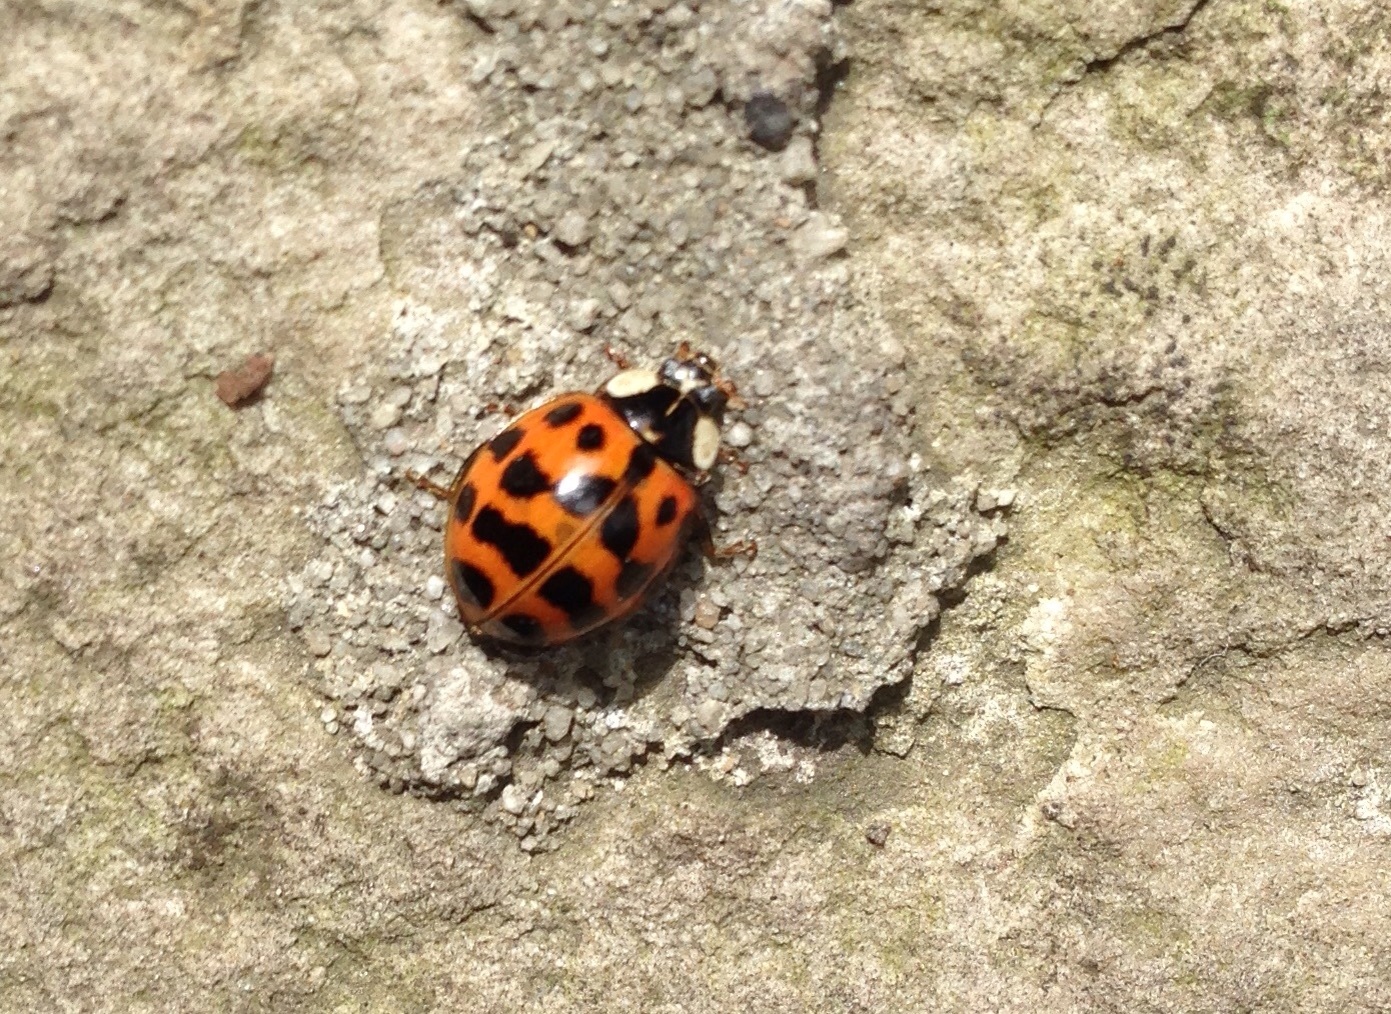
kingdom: Animalia
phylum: Arthropoda
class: Insecta
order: Coleoptera
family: Coccinellidae
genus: Harmonia
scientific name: Harmonia axyridis
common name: Harlequin ladybird
